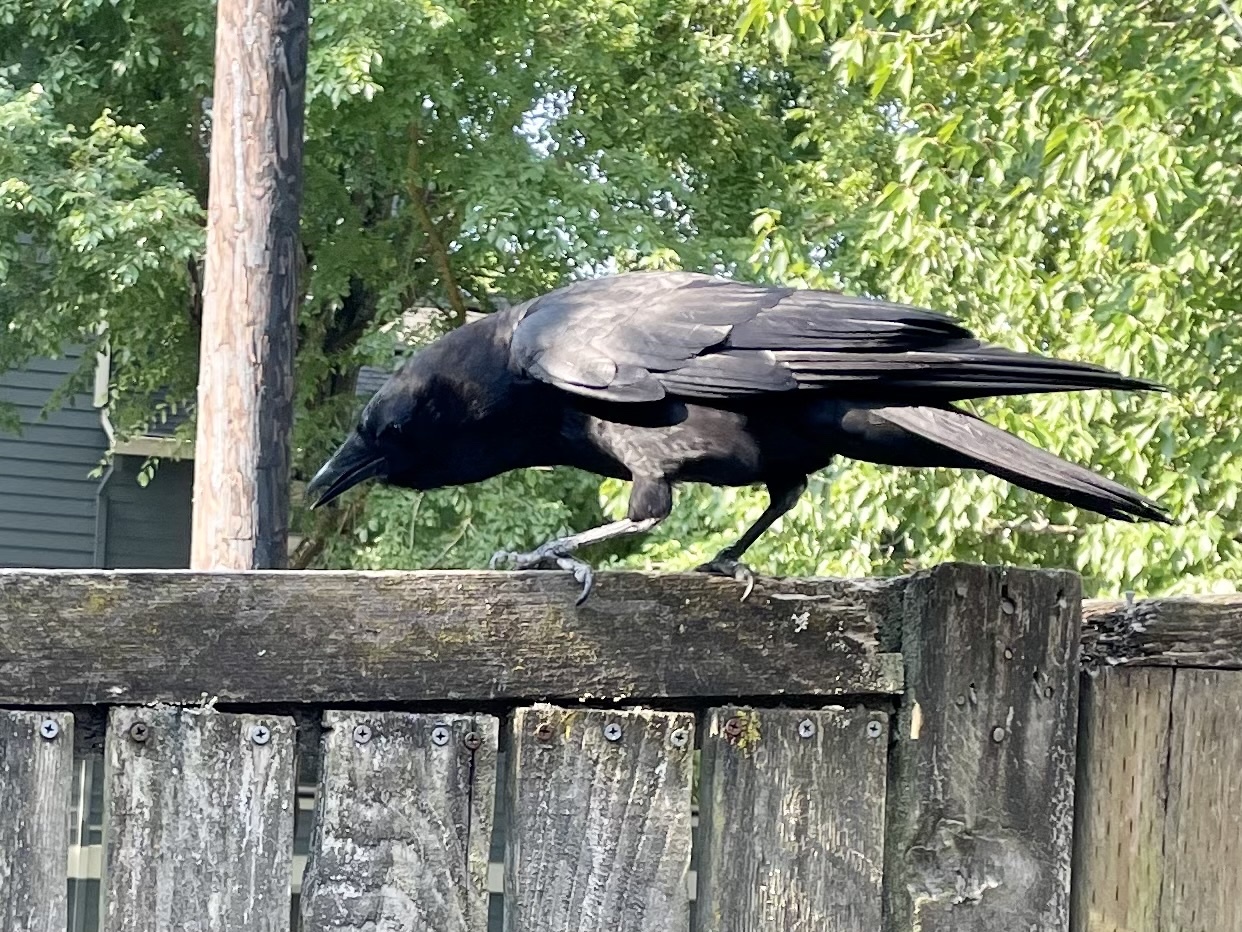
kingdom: Animalia
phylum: Chordata
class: Aves
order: Passeriformes
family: Corvidae
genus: Corvus
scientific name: Corvus brachyrhynchos
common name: American crow
